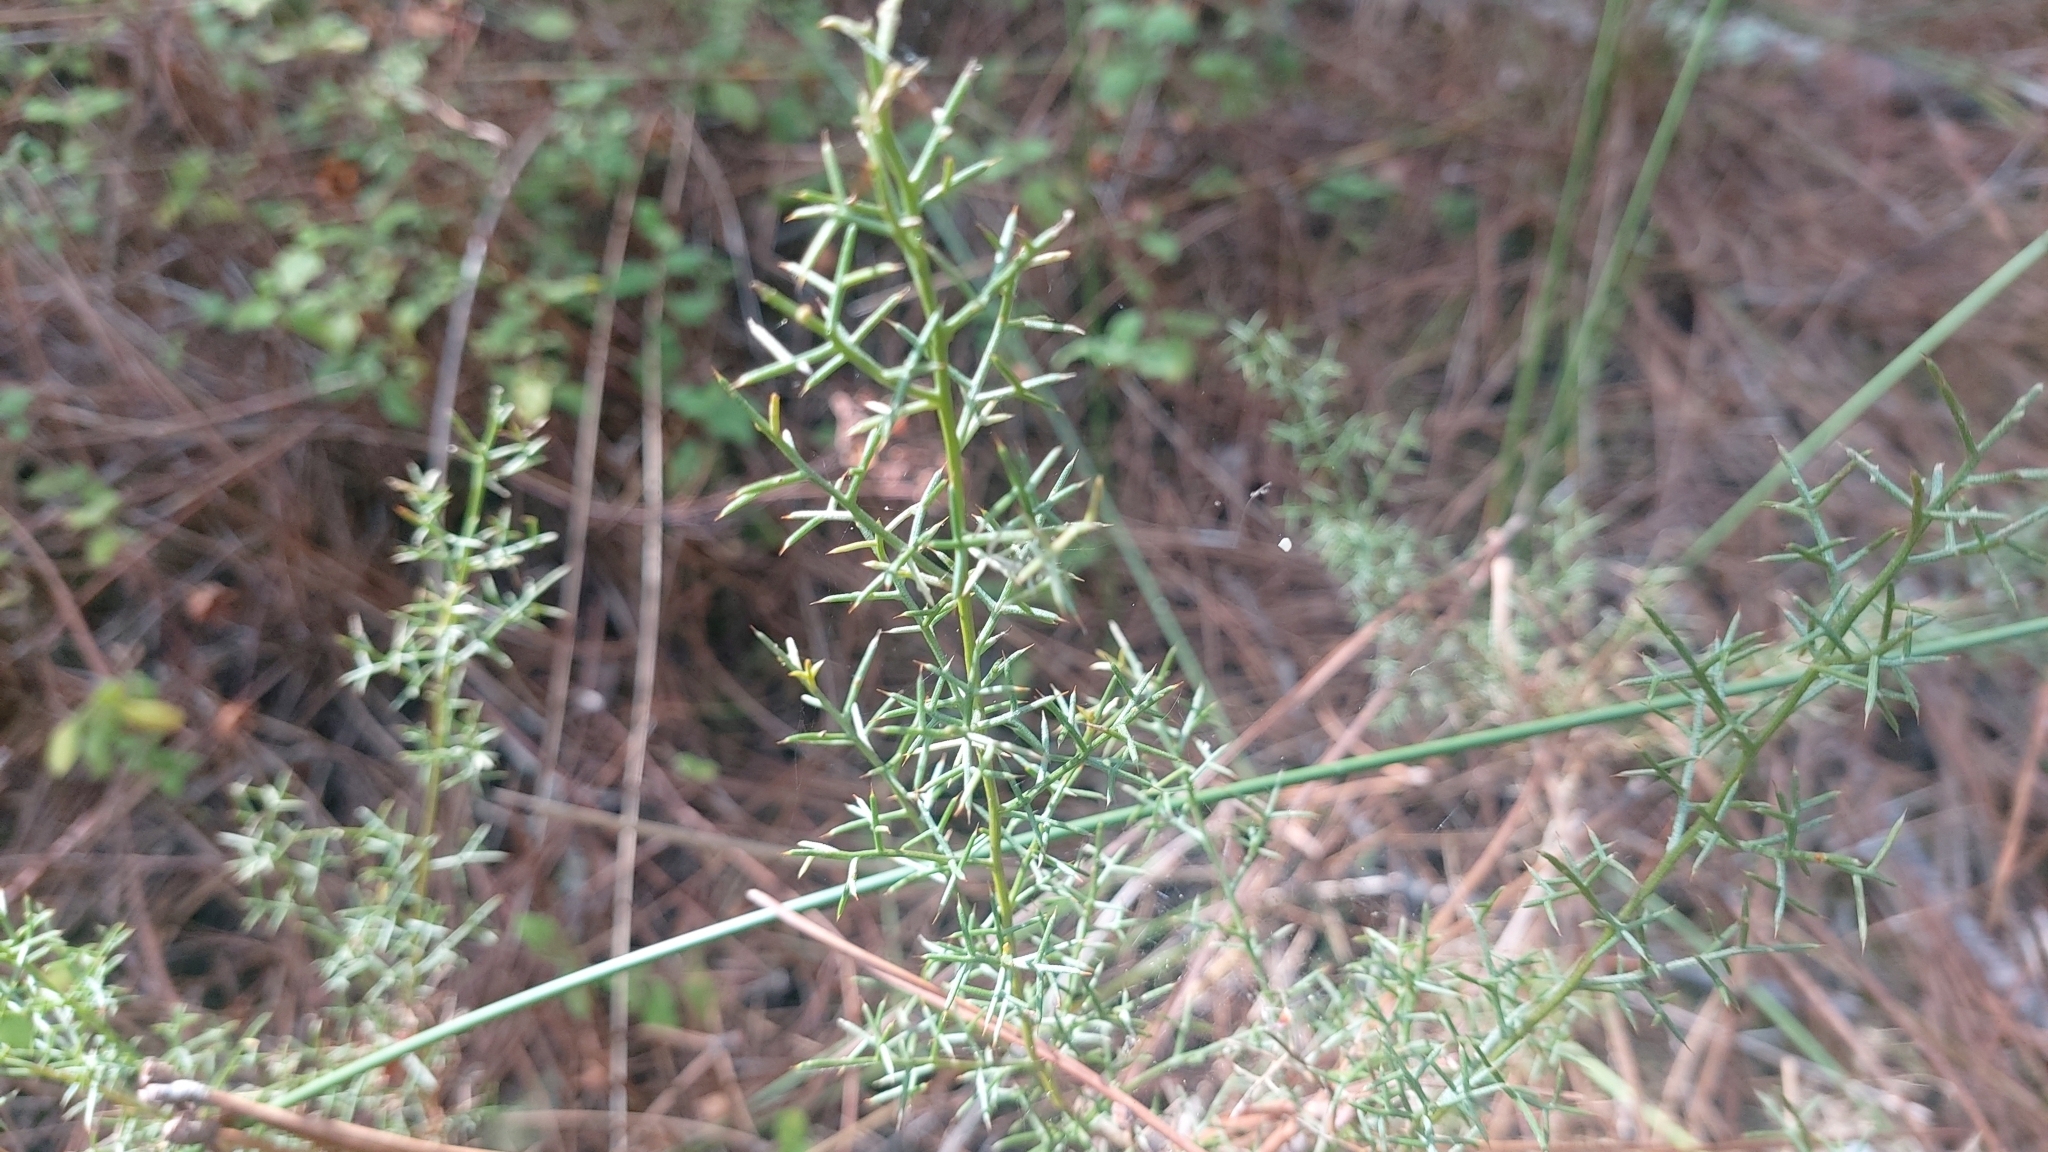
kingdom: Plantae
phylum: Tracheophyta
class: Magnoliopsida
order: Fabales
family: Fabaceae
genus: Stauracanthus
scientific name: Stauracanthus genistoides
